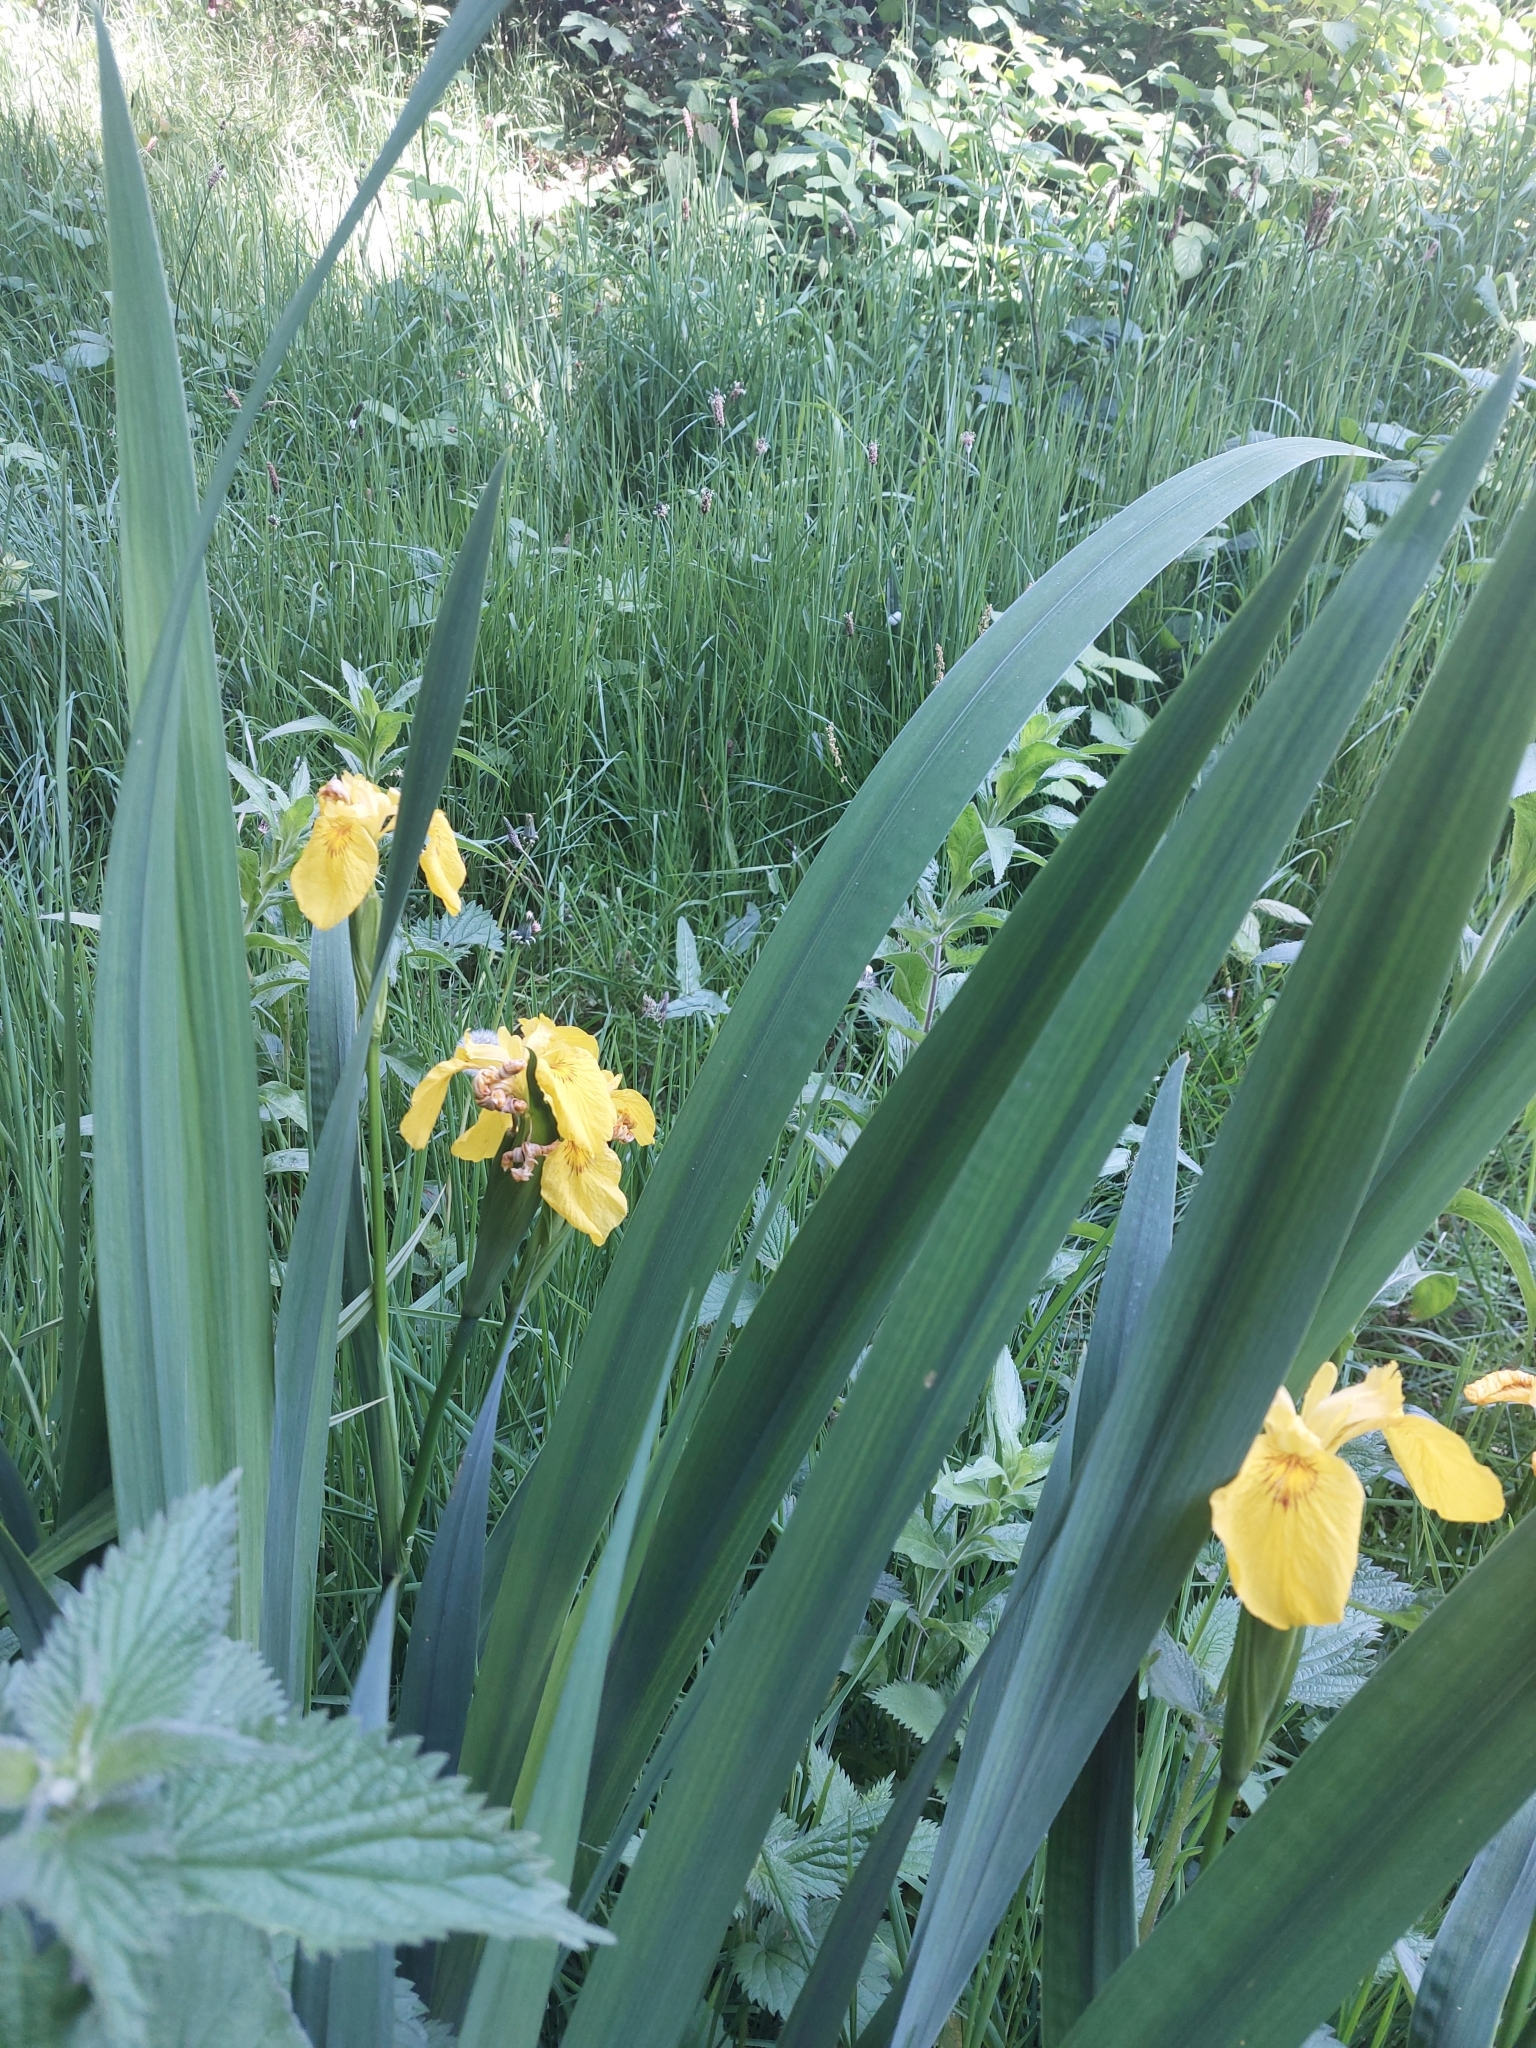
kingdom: Plantae
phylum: Tracheophyta
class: Liliopsida
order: Asparagales
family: Iridaceae
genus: Iris
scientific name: Iris pseudacorus
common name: Yellow flag
